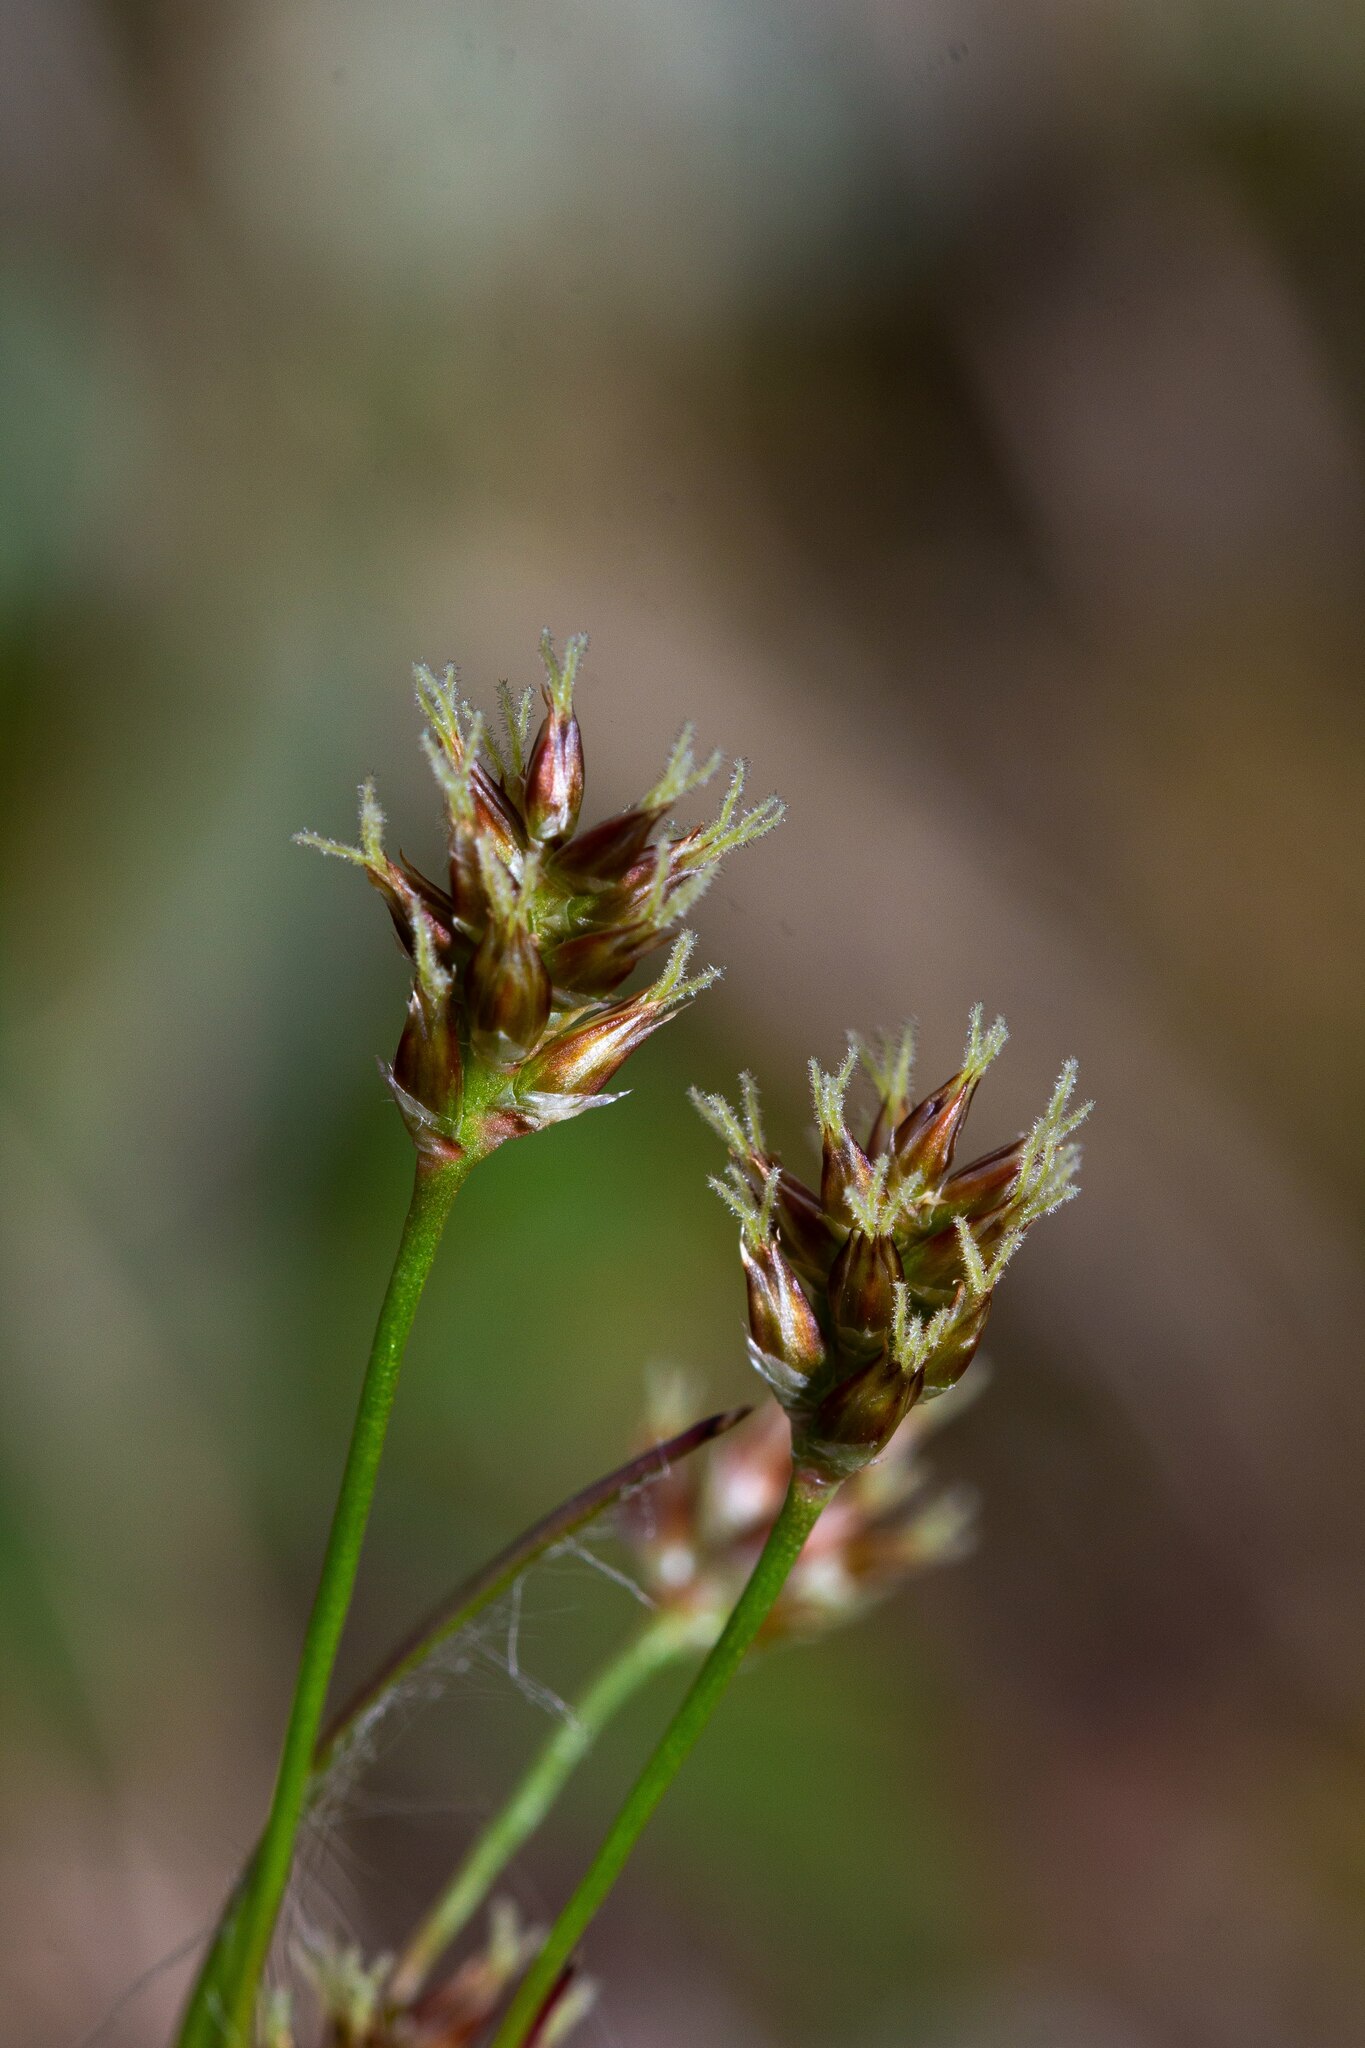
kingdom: Plantae
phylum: Tracheophyta
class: Liliopsida
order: Poales
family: Juncaceae
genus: Luzula
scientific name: Luzula bulbosa
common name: Bulbous woodrush
